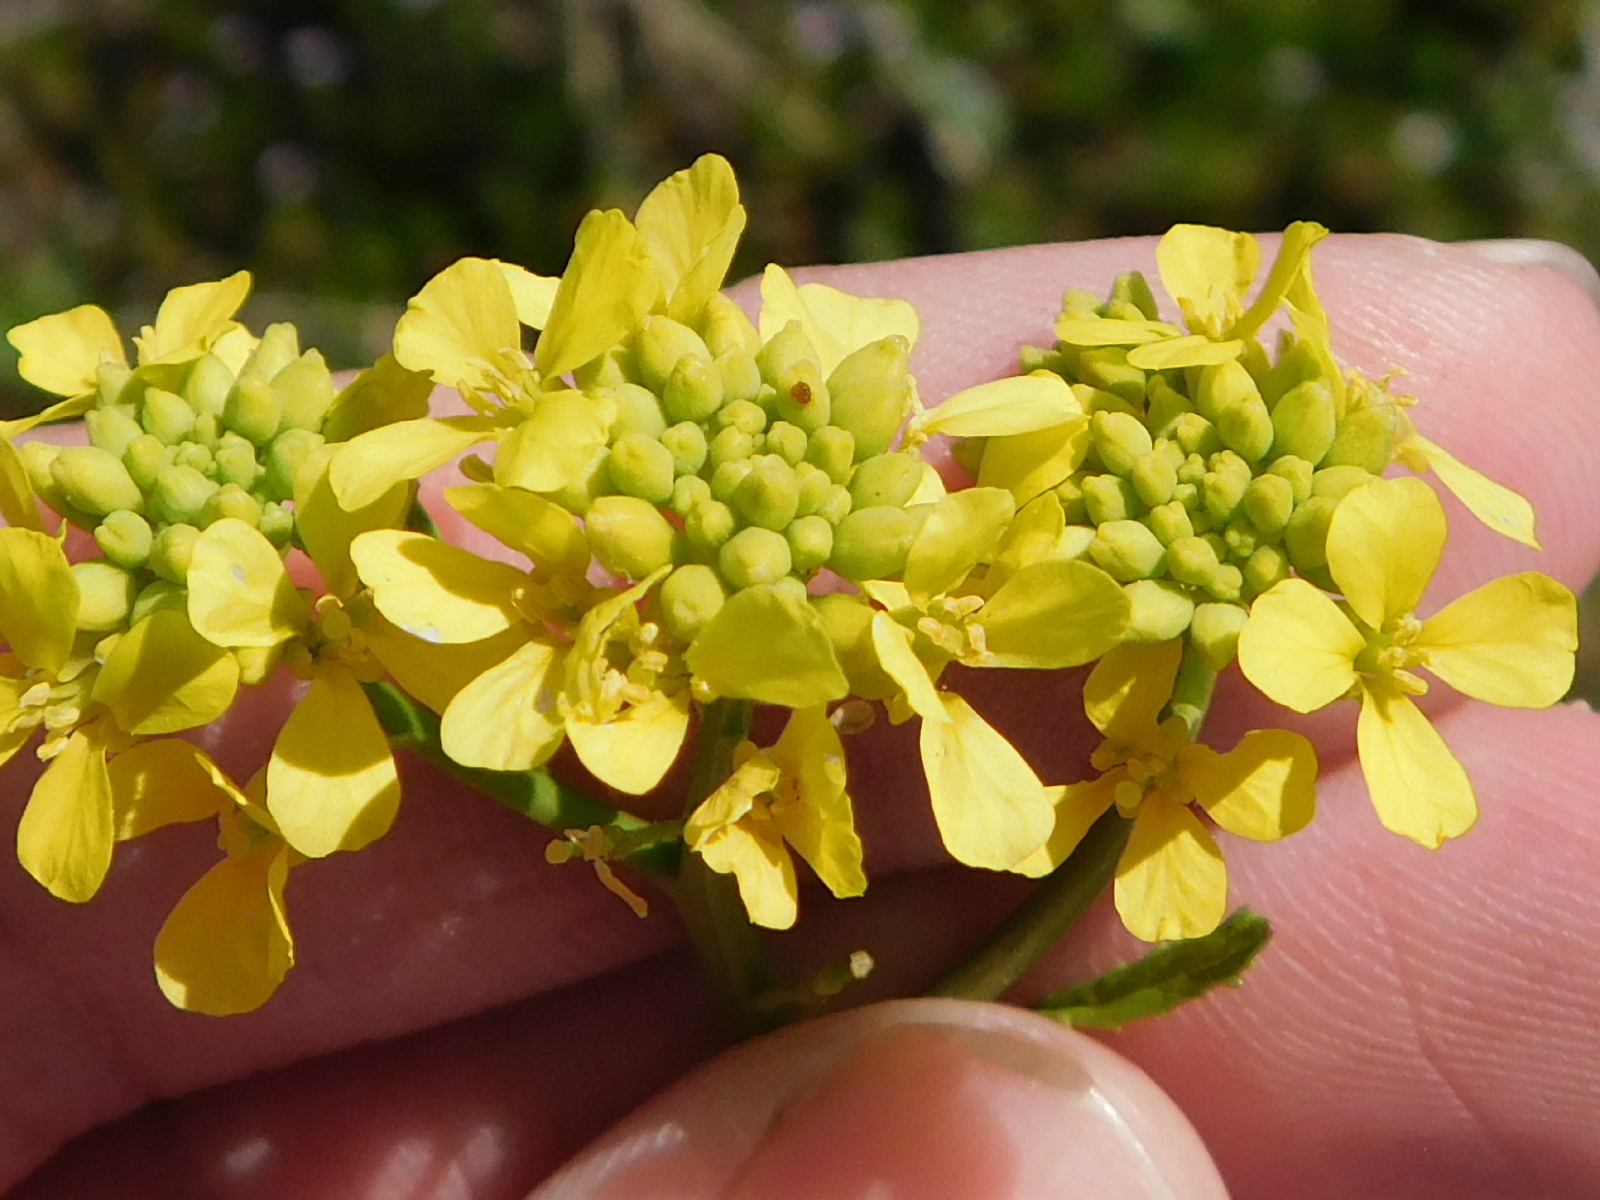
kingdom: Plantae
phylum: Tracheophyta
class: Magnoliopsida
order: Brassicales
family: Brassicaceae
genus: Rapistrum
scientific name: Rapistrum rugosum
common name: Annual bastardcabbage
